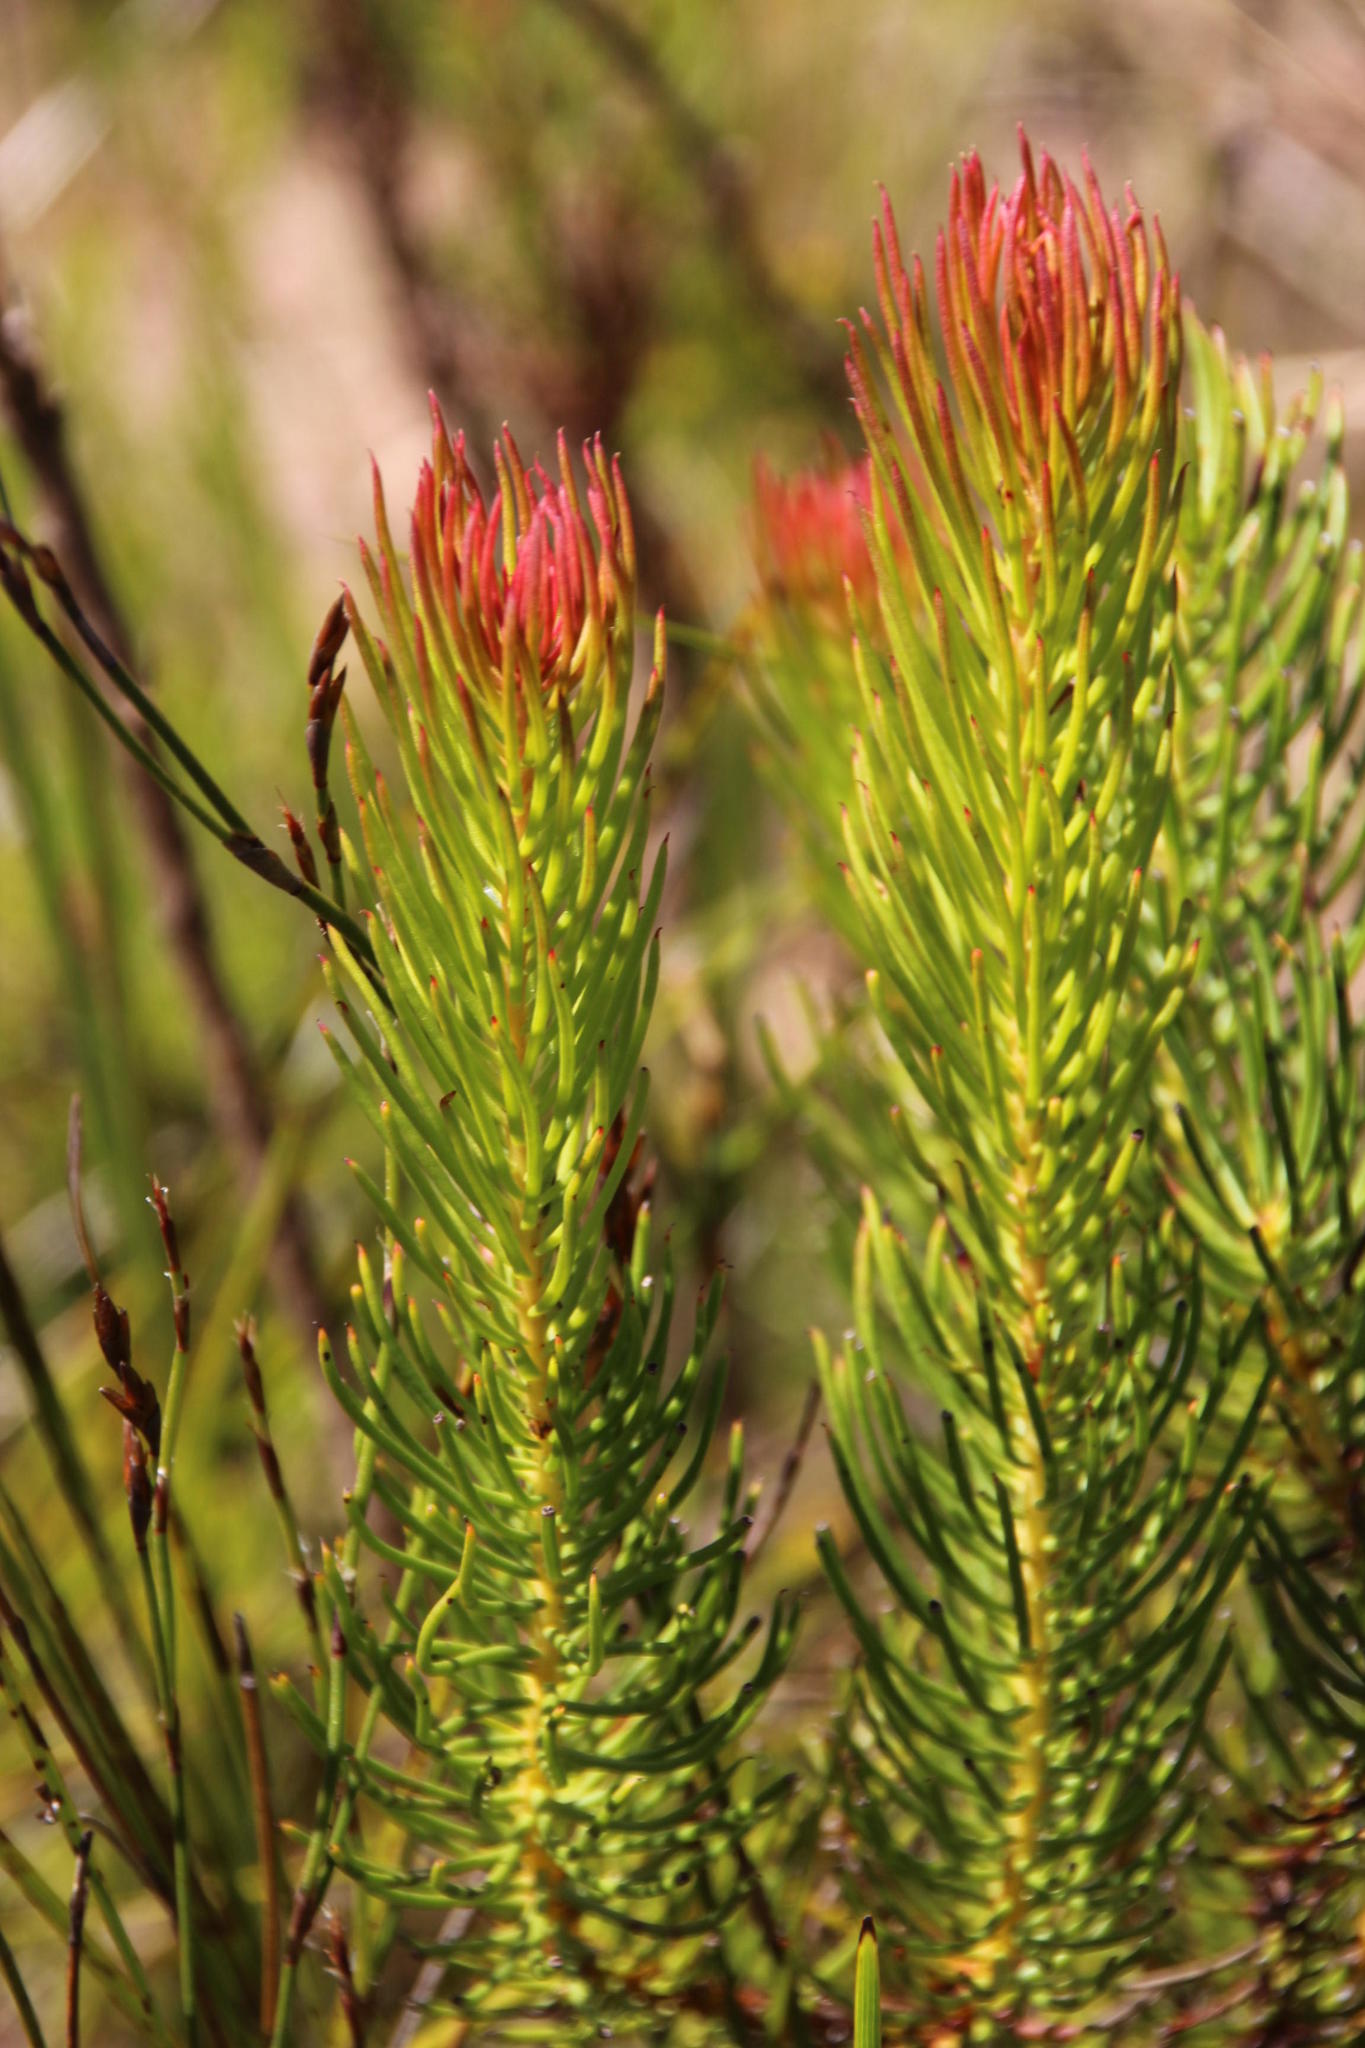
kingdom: Plantae
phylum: Tracheophyta
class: Magnoliopsida
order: Proteales
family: Proteaceae
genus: Protea
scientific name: Protea subulifolia
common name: Awl-leaf sugarbush
